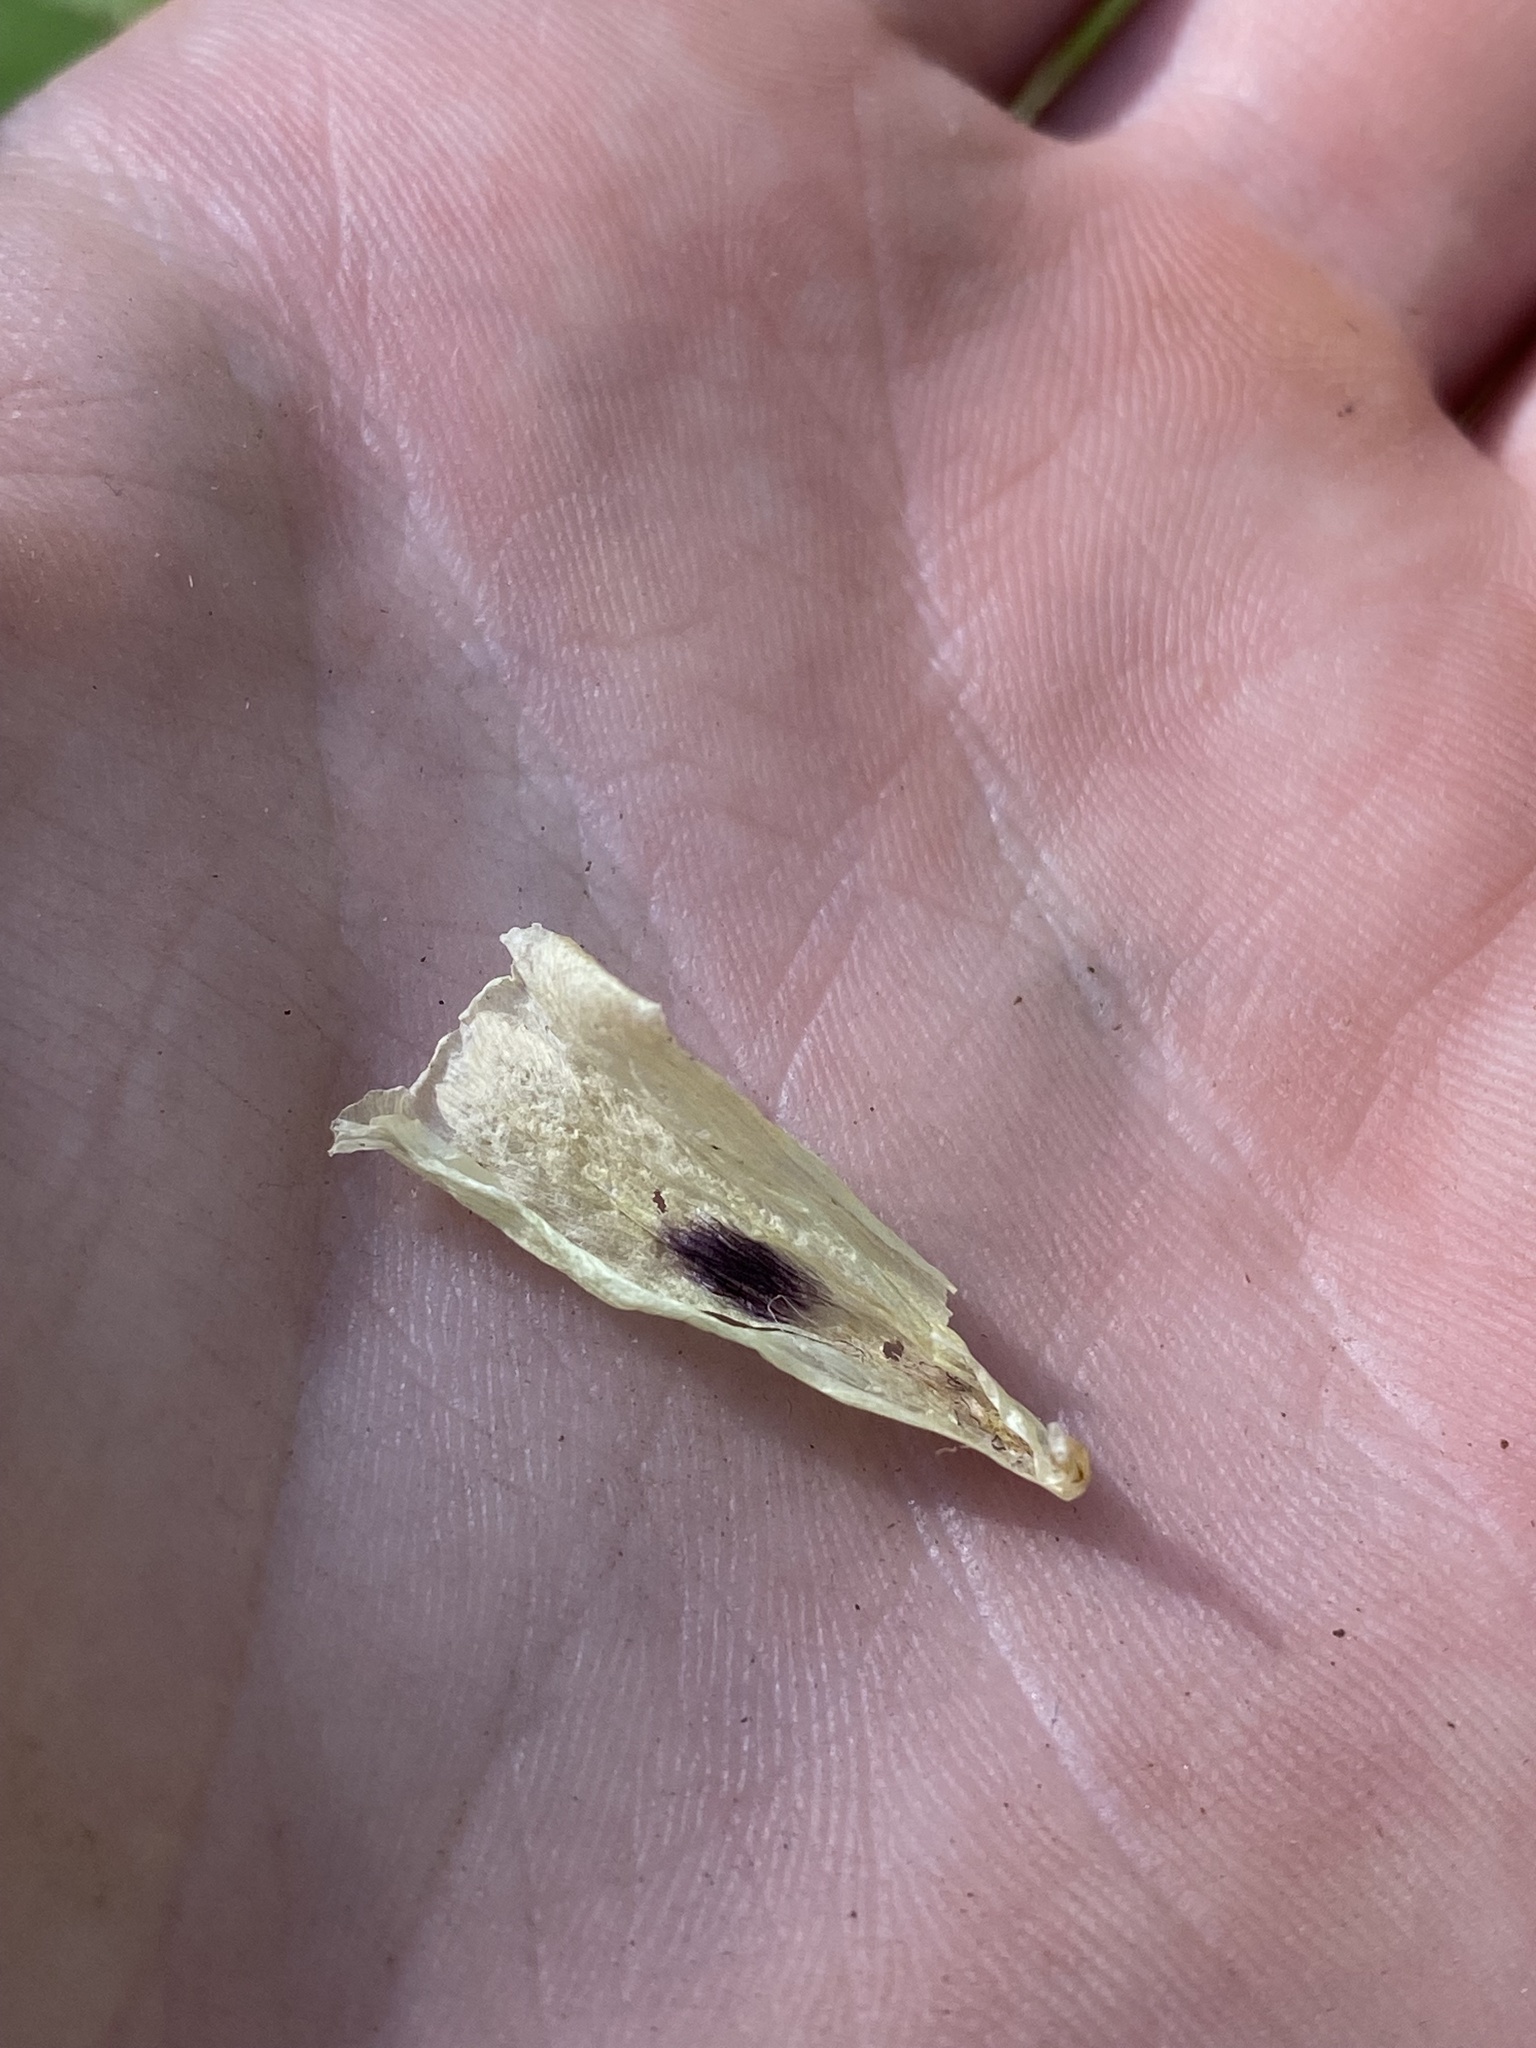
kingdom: Plantae
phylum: Tracheophyta
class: Liliopsida
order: Liliales
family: Liliaceae
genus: Calochortus
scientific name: Calochortus eurycarpus
